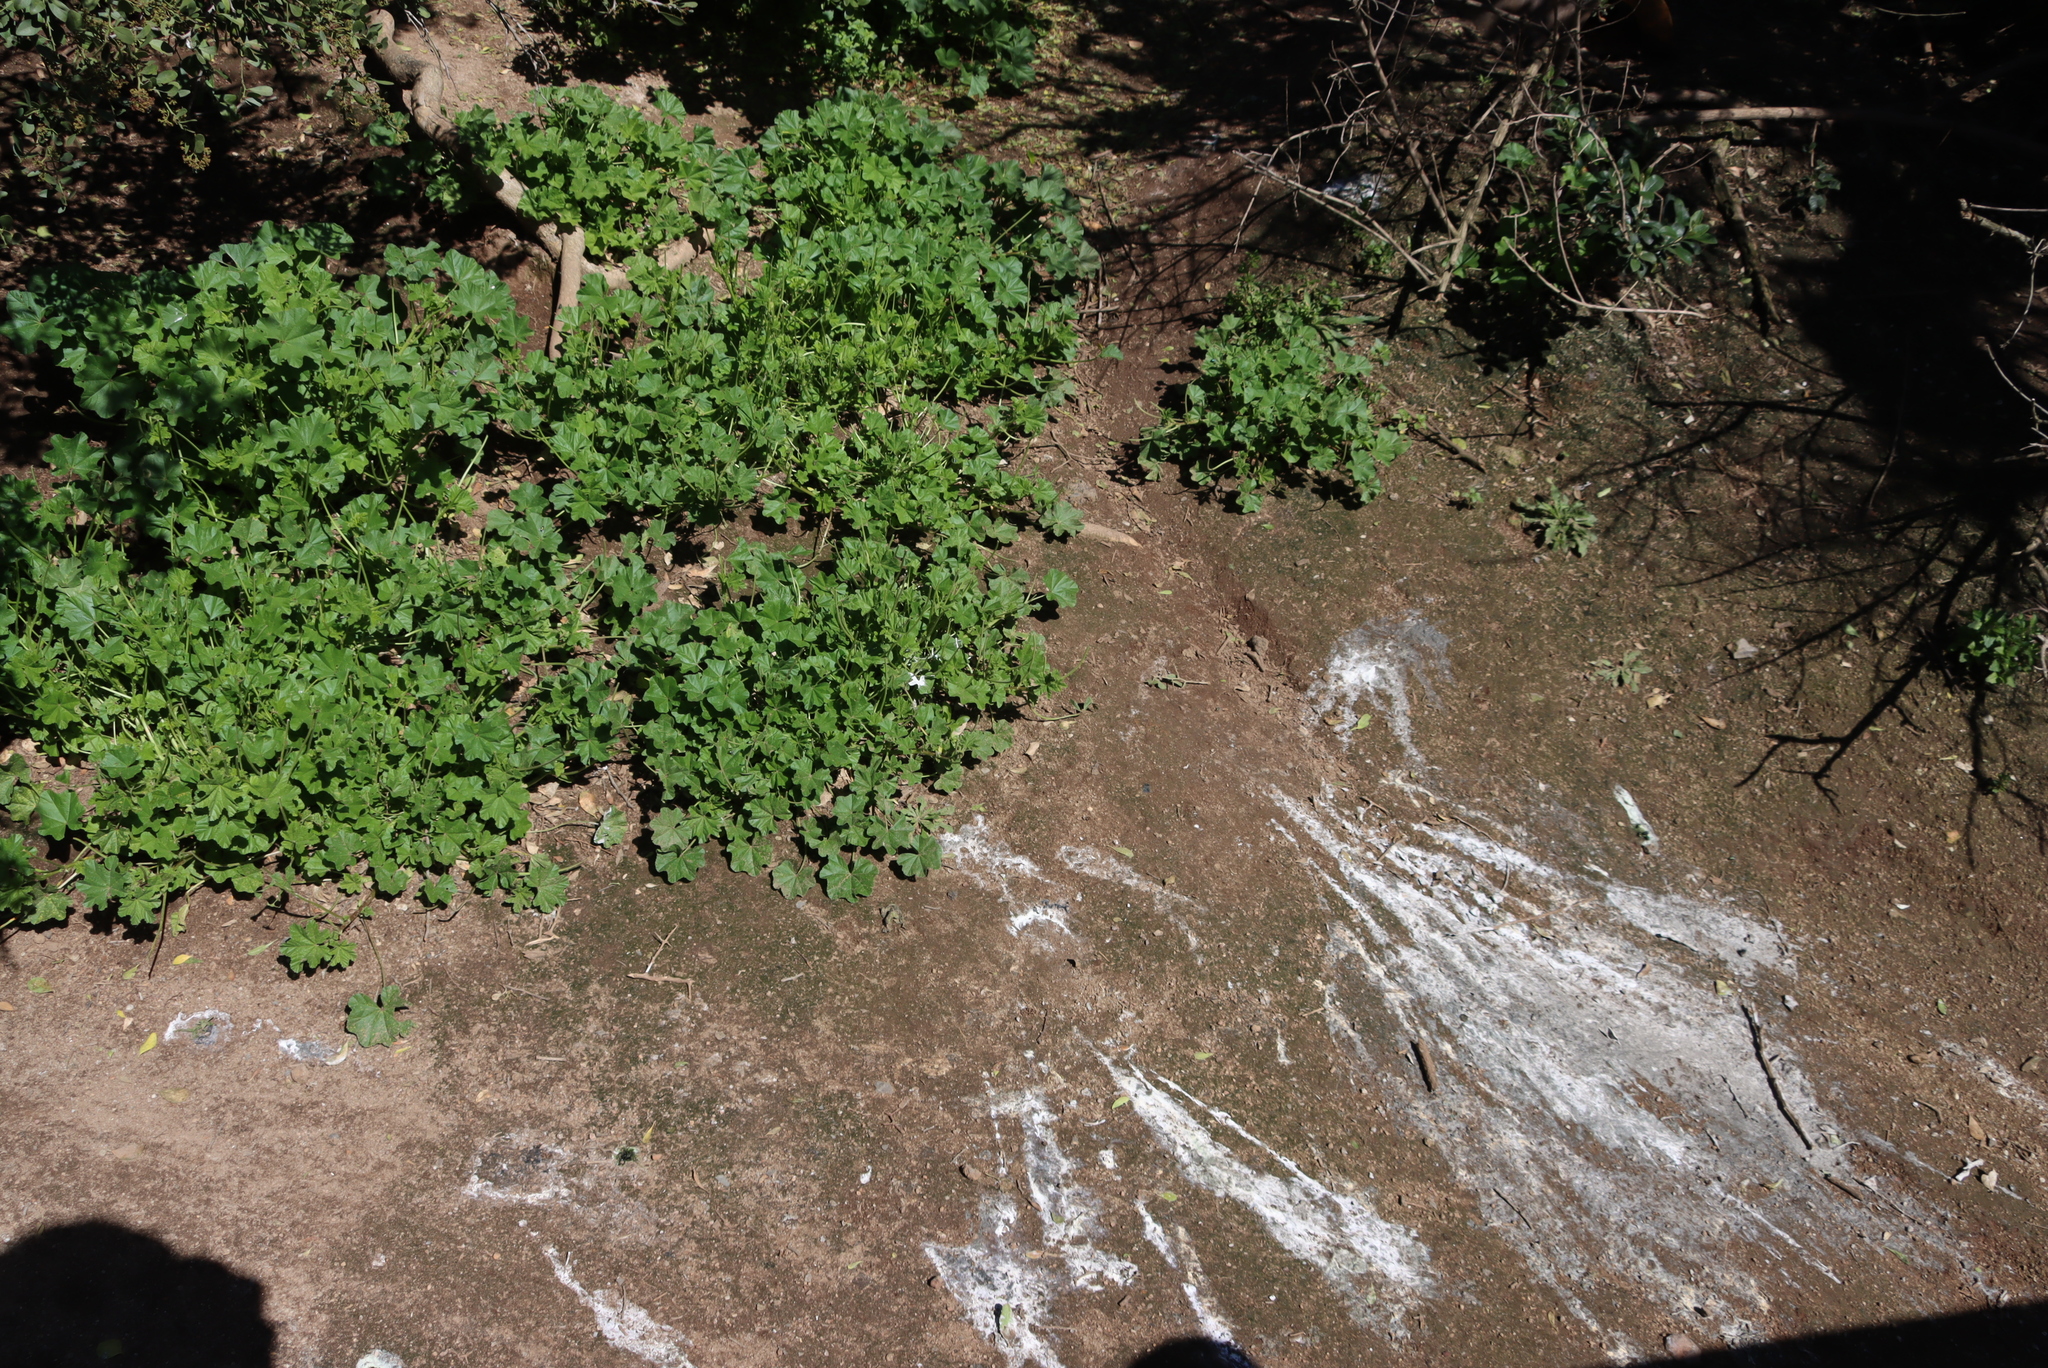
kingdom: Animalia
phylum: Chordata
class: Aves
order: Sphenisciformes
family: Spheniscidae
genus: Spheniscus
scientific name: Spheniscus demersus
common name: African penguin
